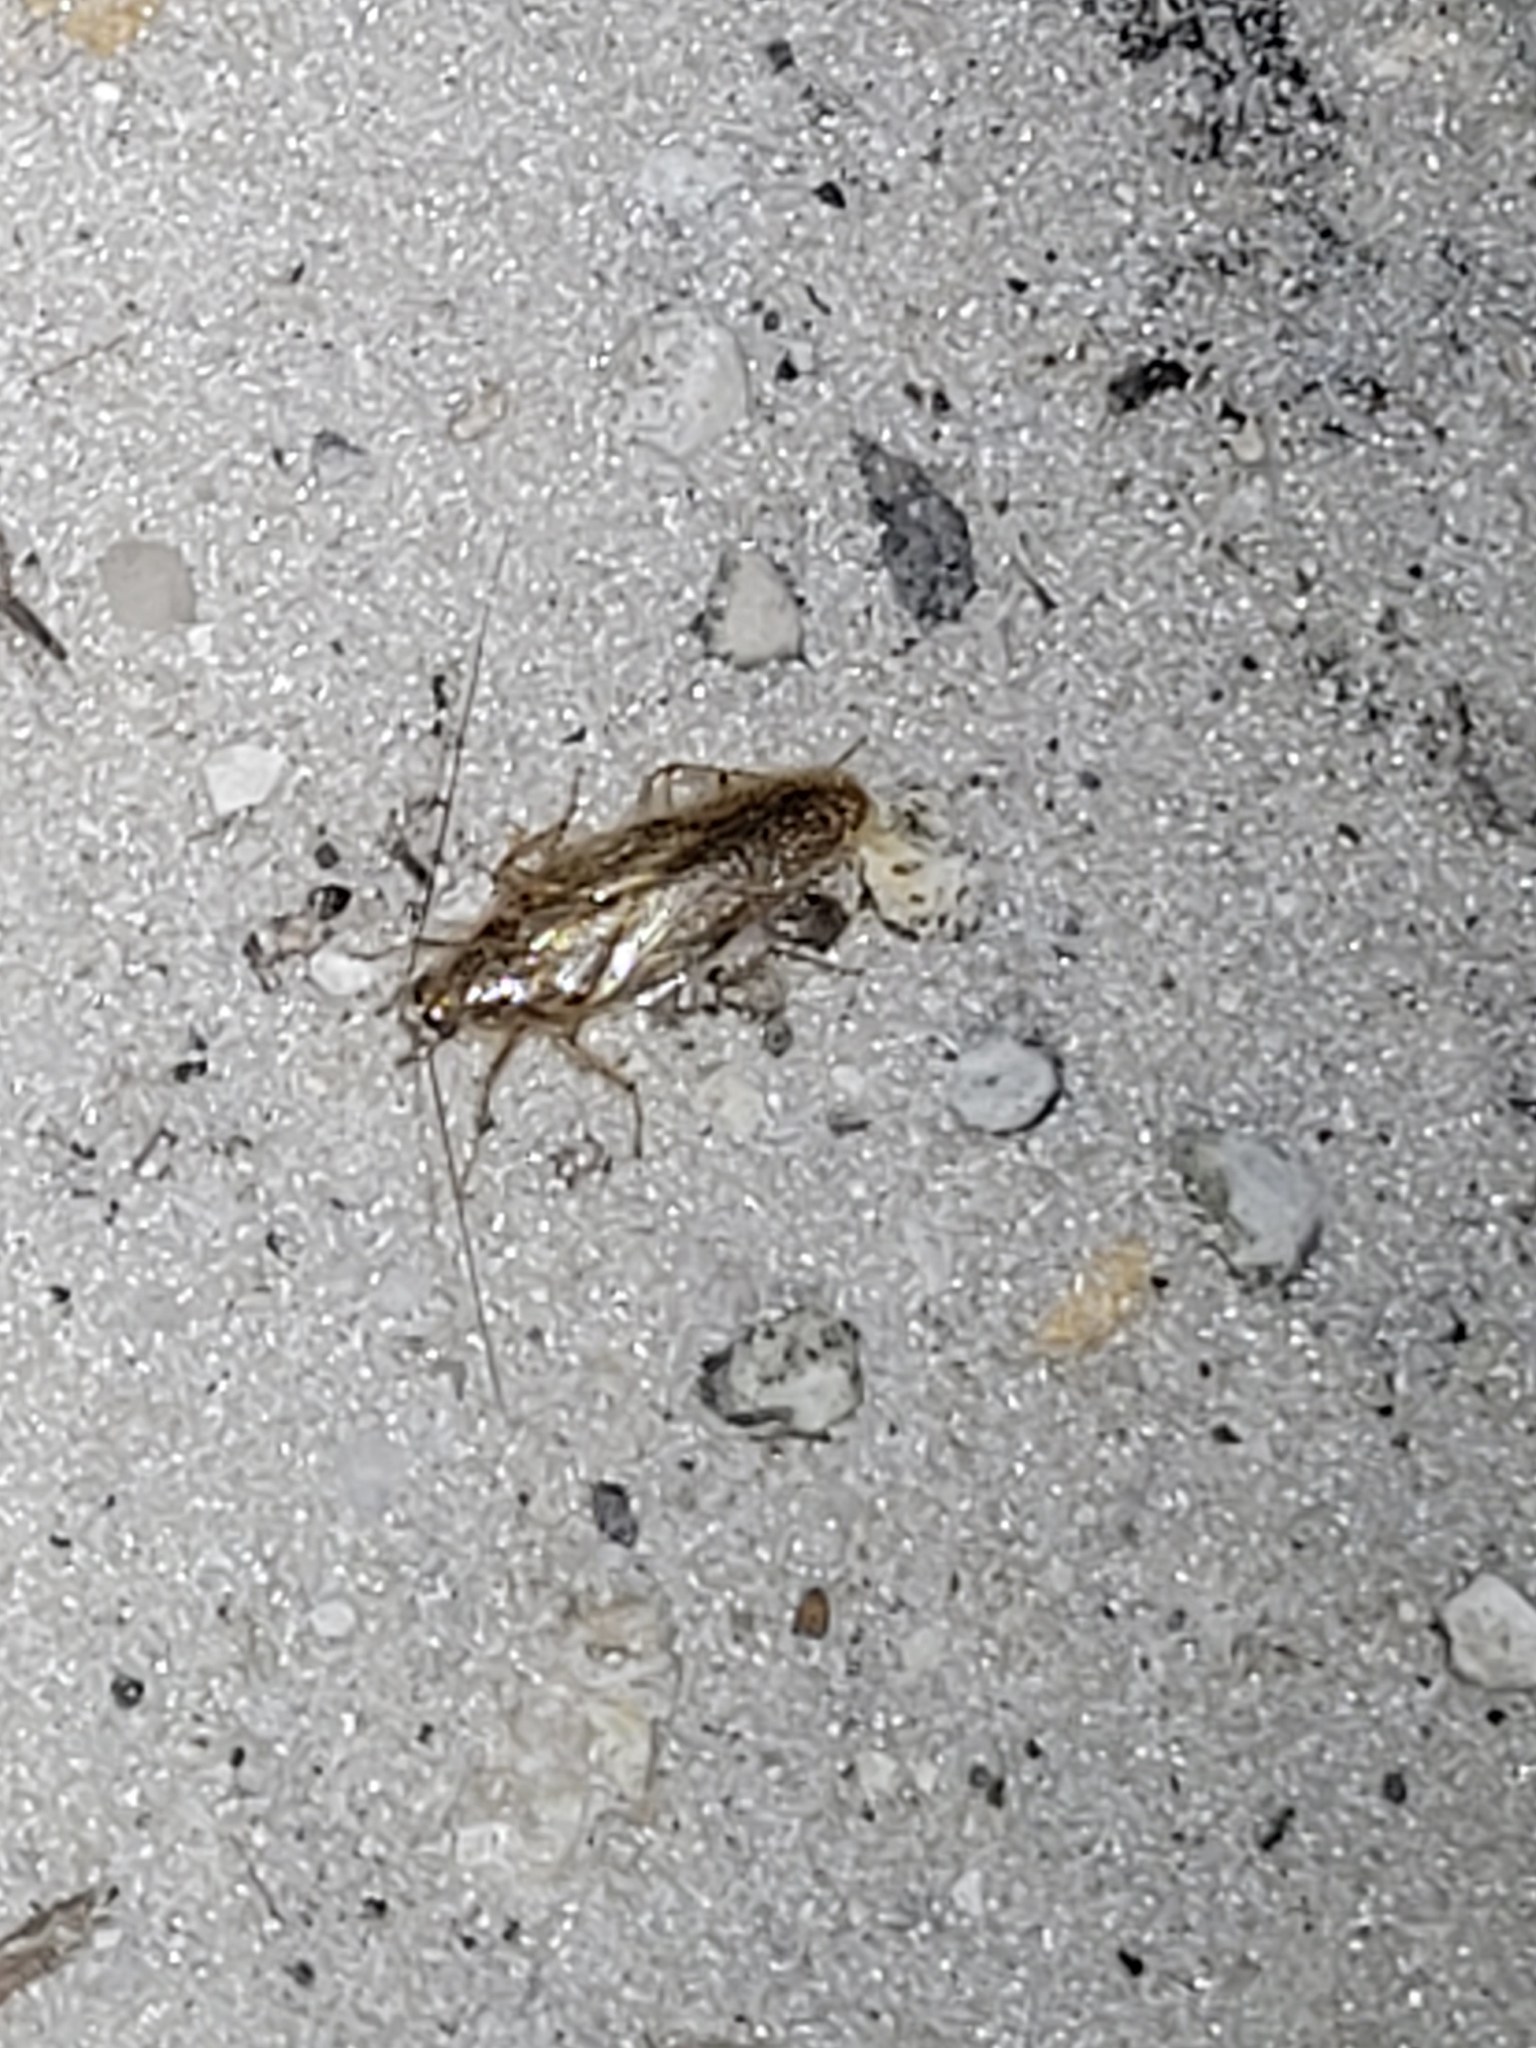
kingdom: Animalia
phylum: Arthropoda
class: Insecta
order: Blattodea
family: Ectobiidae
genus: Neoblattella
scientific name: Neoblattella detersa
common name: Wood cockroach
